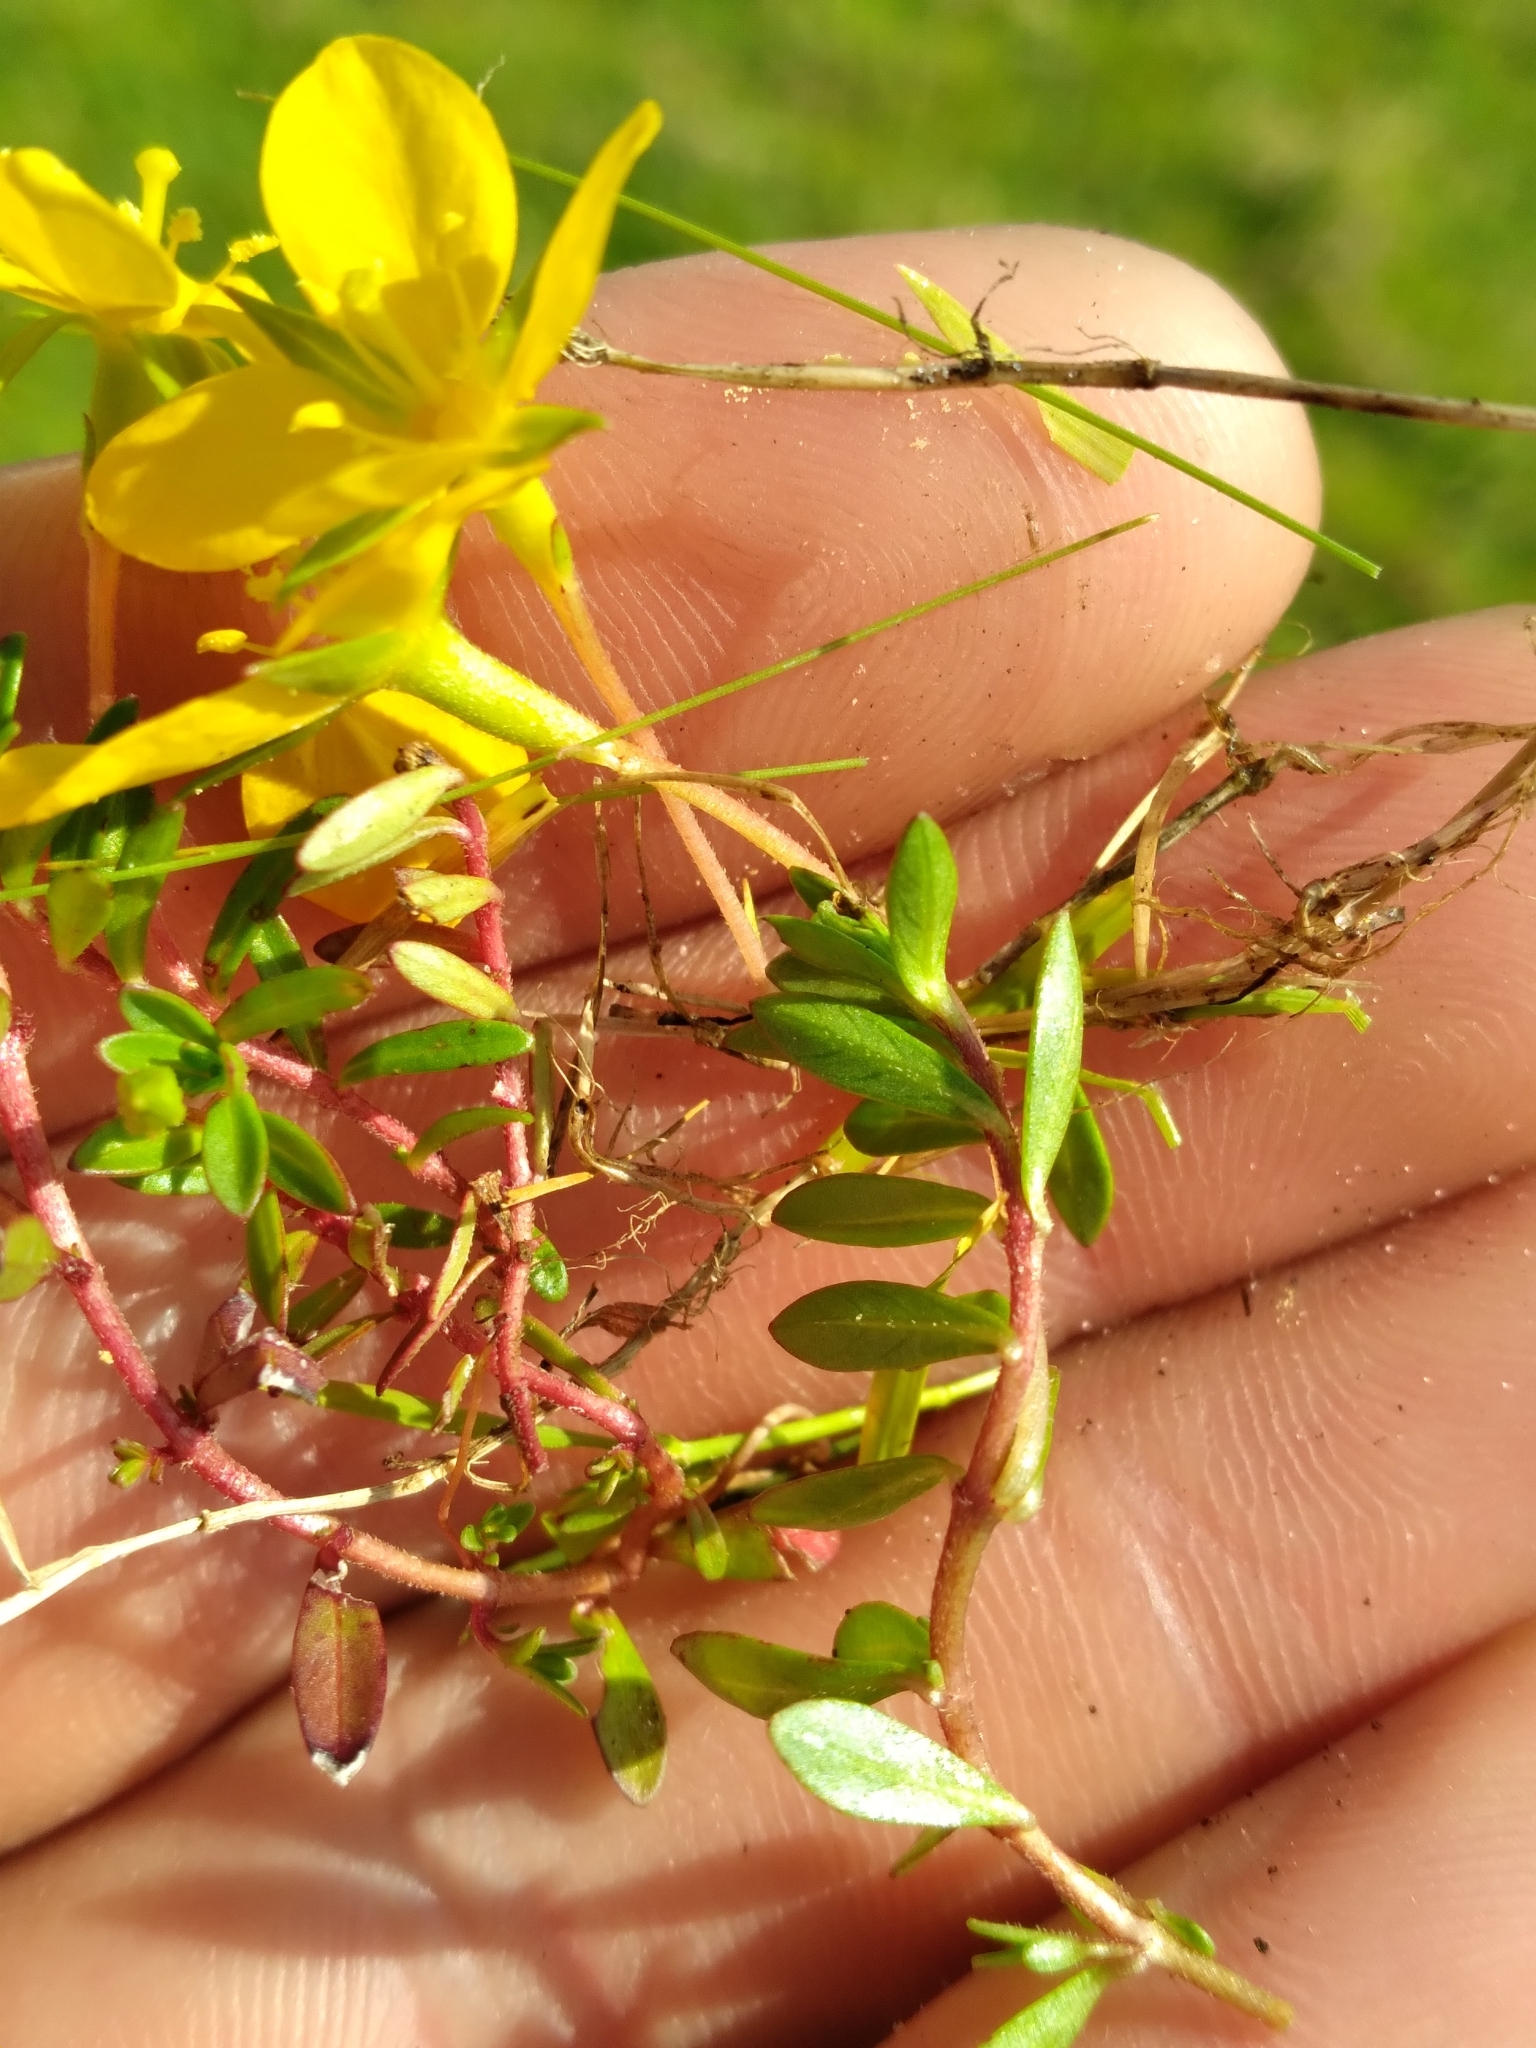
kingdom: Plantae
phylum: Tracheophyta
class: Magnoliopsida
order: Myrtales
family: Onagraceae
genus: Ludwigia
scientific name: Ludwigia arcuata
